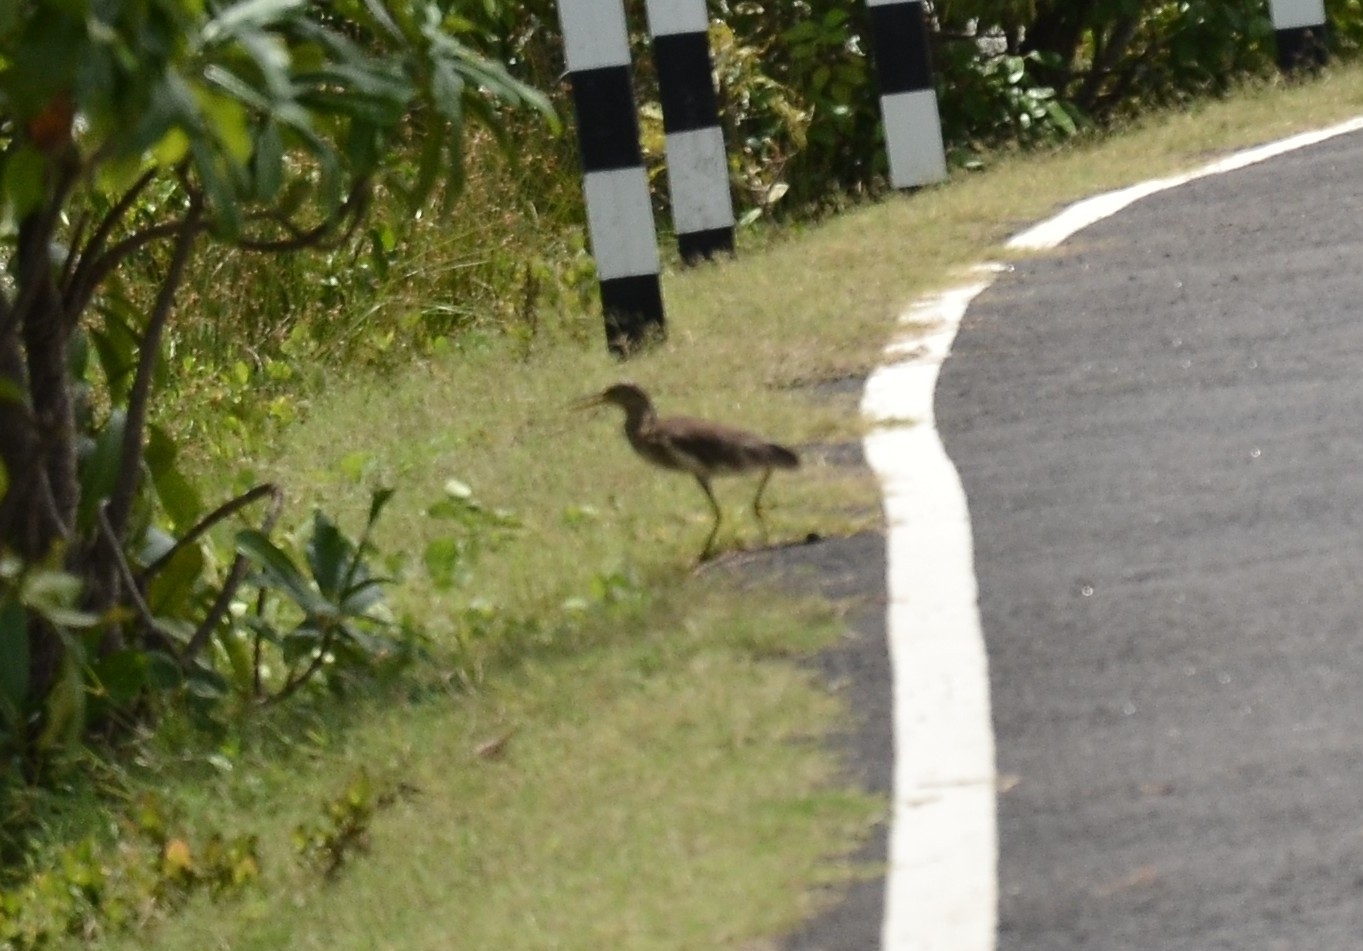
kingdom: Animalia
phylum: Chordata
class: Aves
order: Pelecaniformes
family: Ardeidae
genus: Ardeola
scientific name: Ardeola grayii
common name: Indian pond heron
